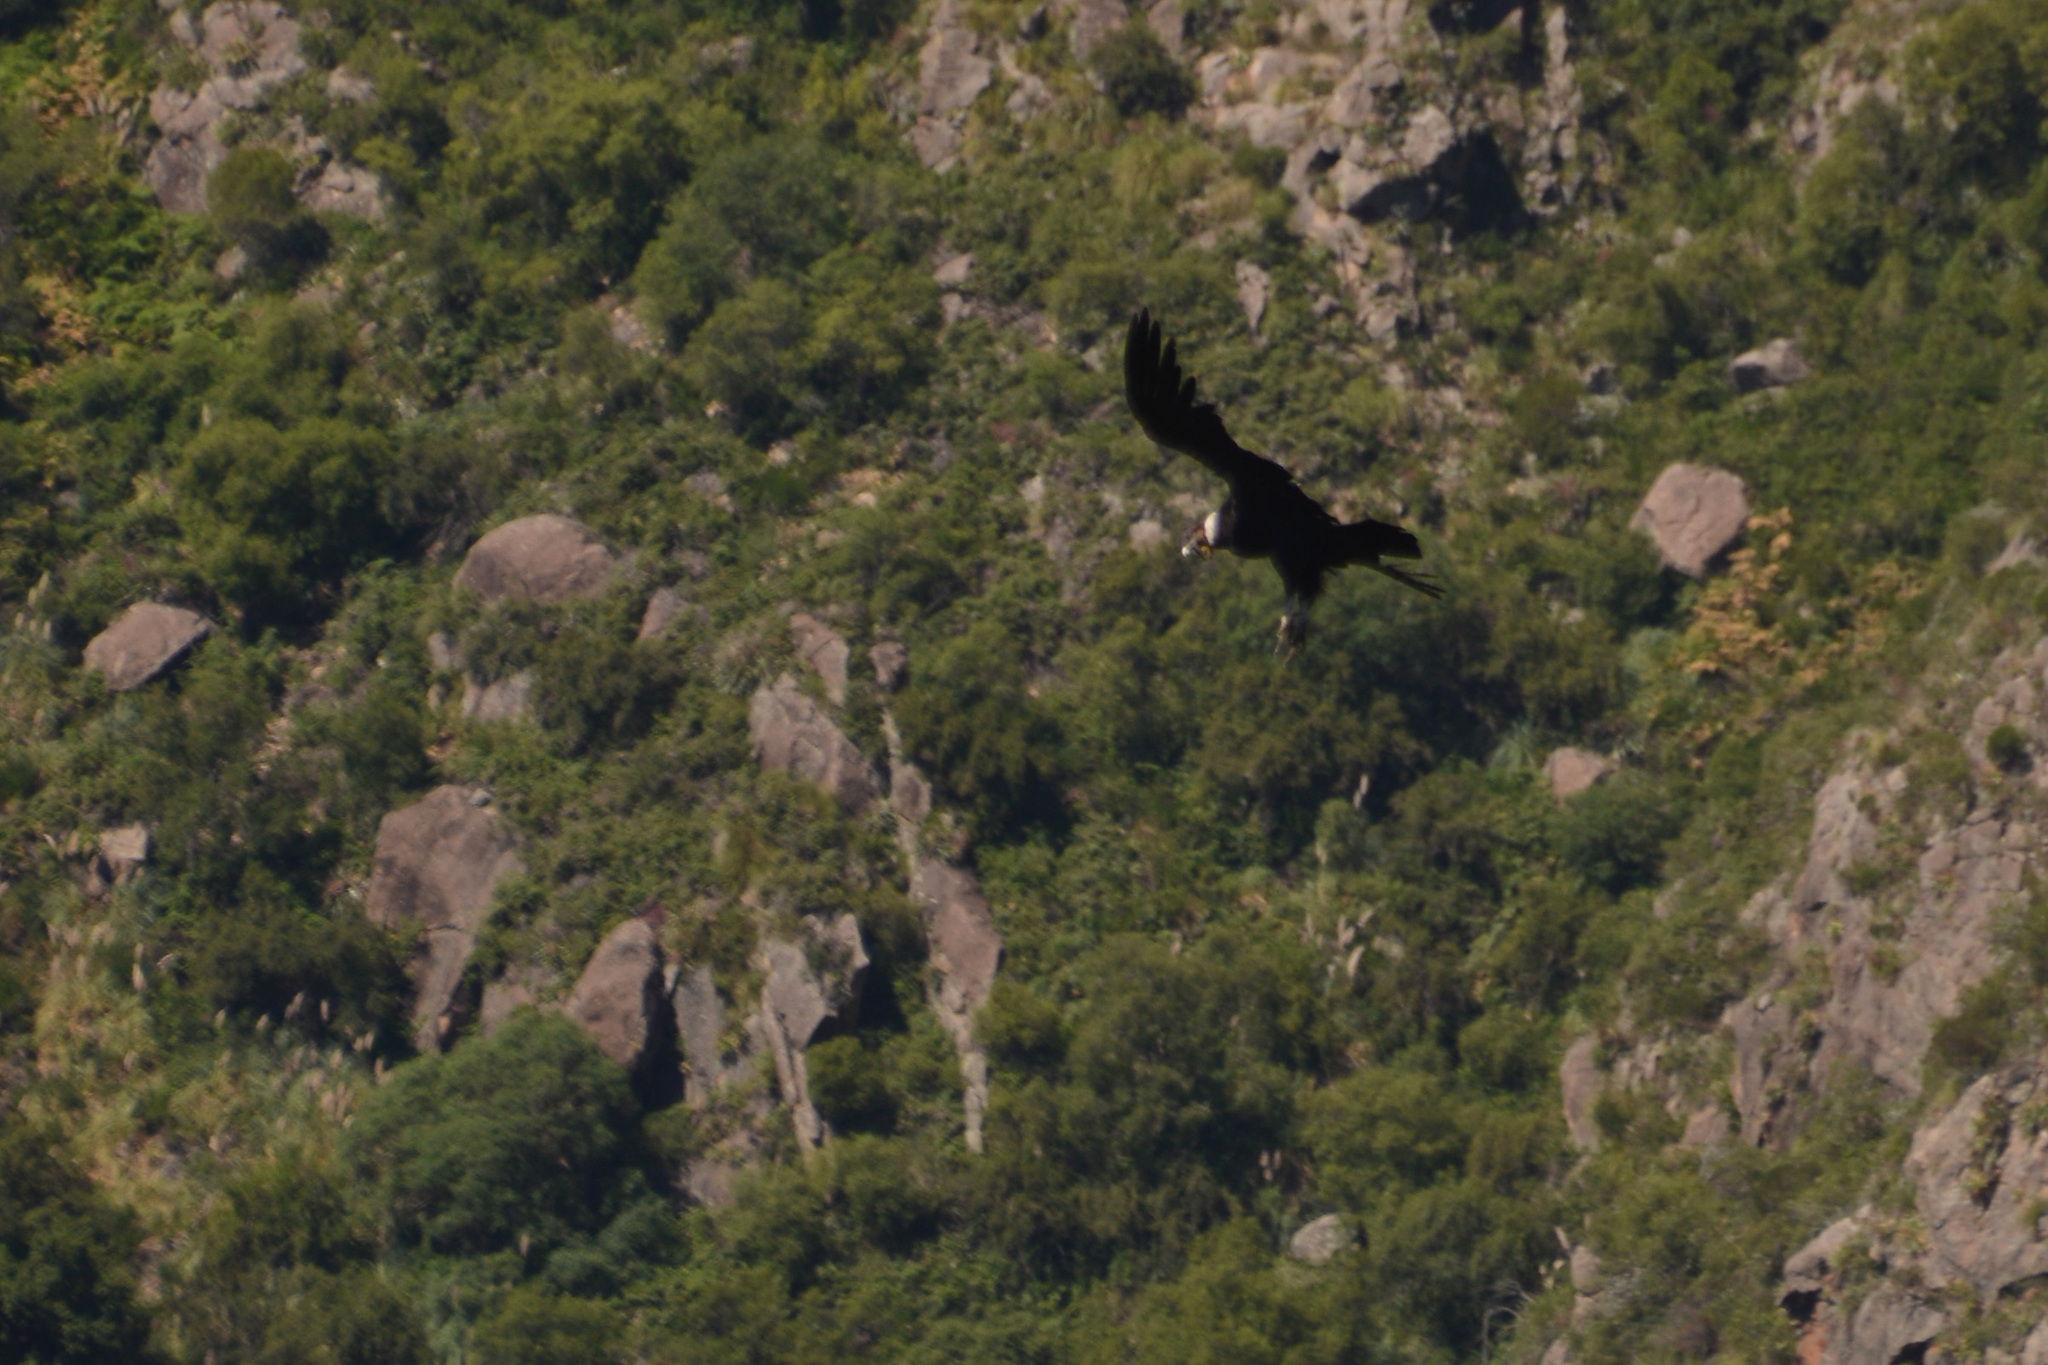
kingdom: Animalia
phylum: Chordata
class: Aves
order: Accipitriformes
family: Cathartidae
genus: Vultur
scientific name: Vultur gryphus
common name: Andean condor
